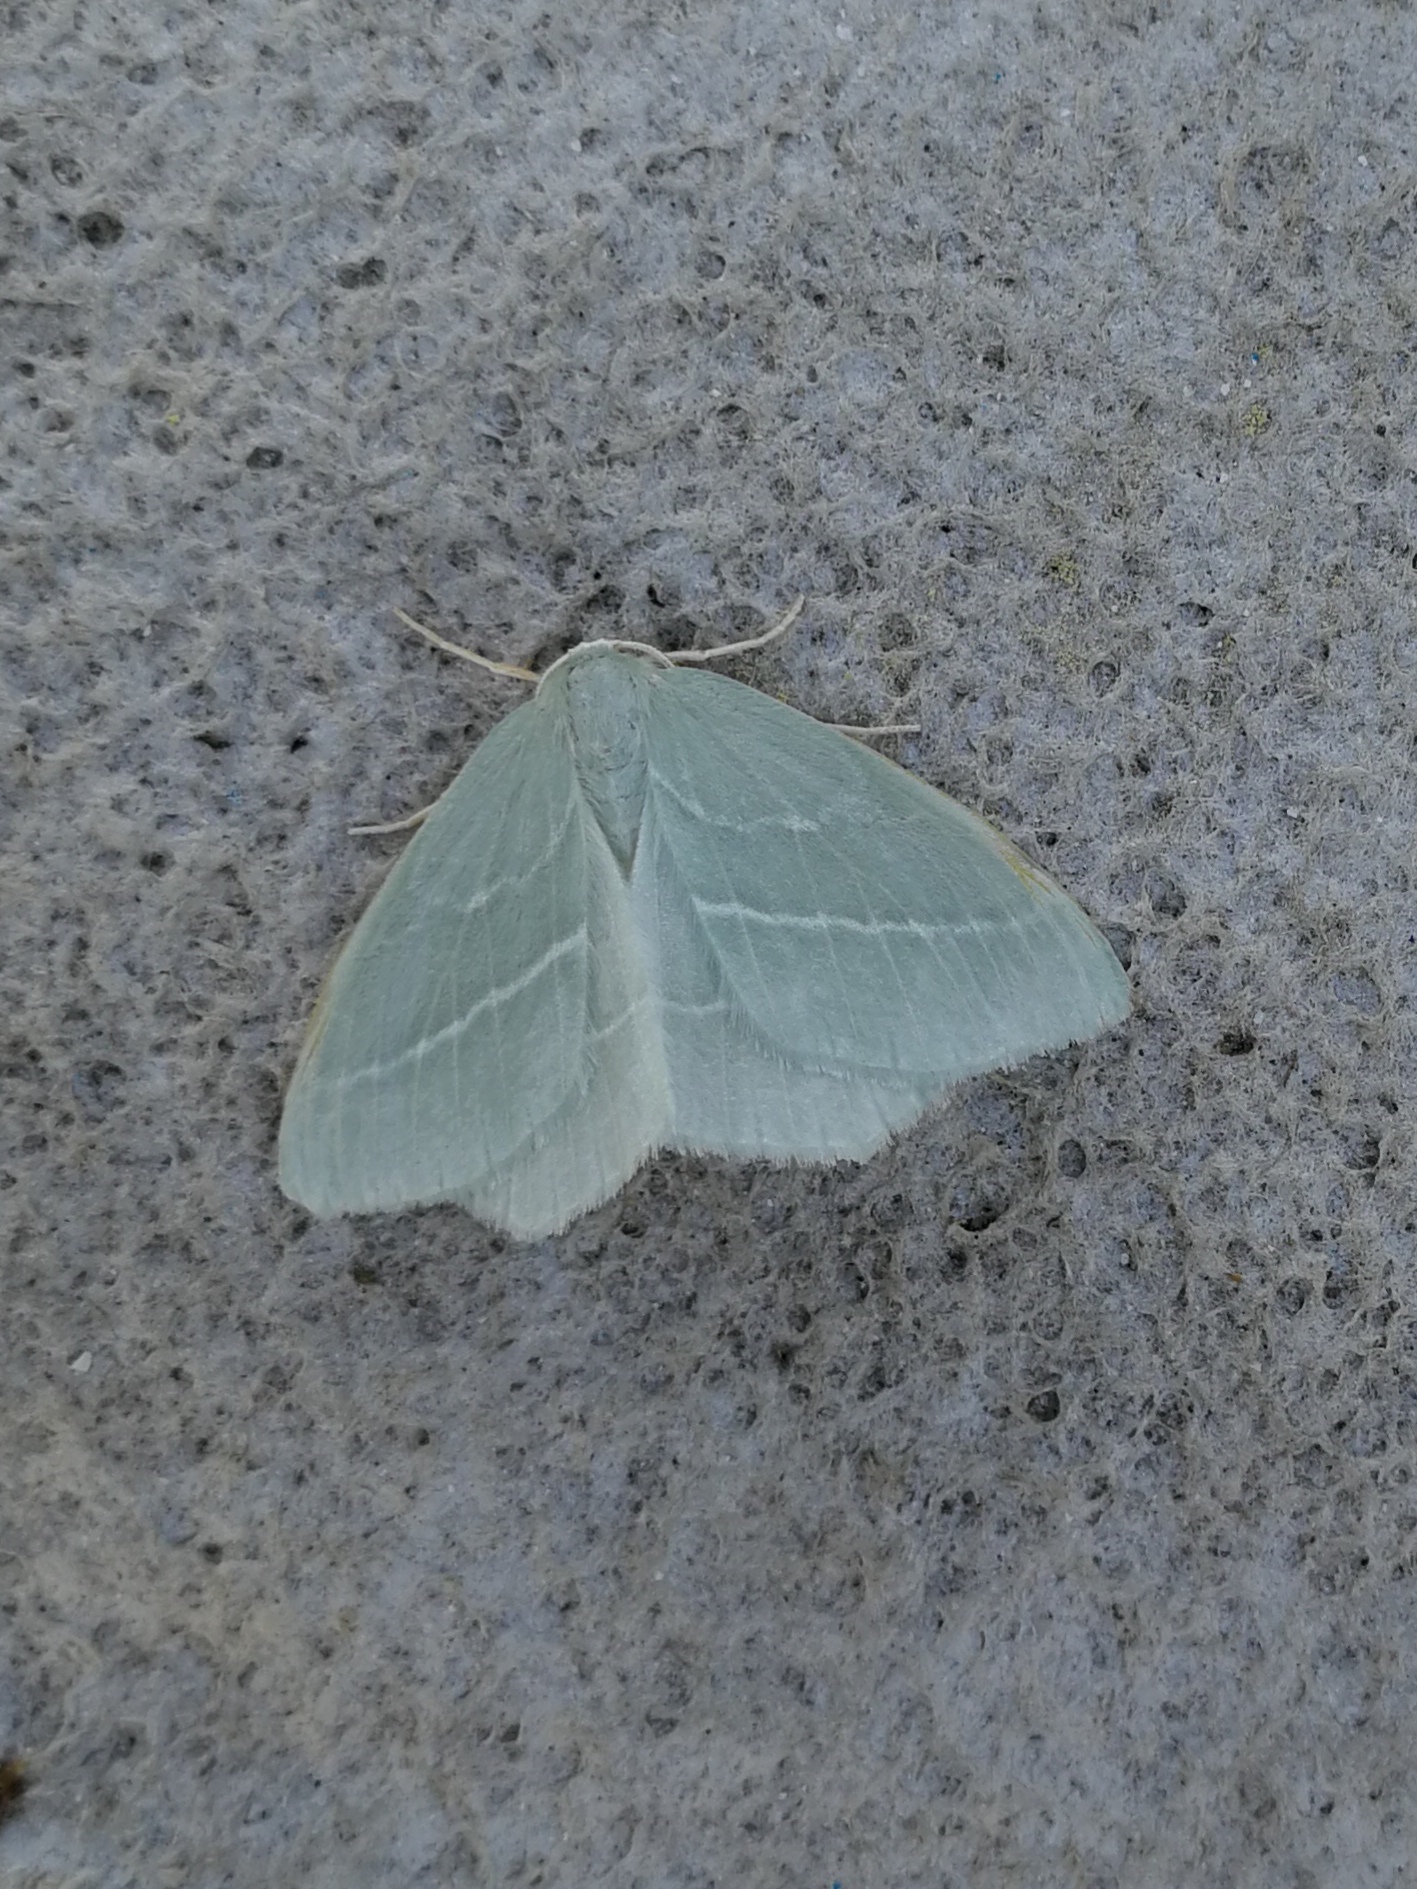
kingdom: Animalia
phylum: Arthropoda
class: Insecta
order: Lepidoptera
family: Geometridae
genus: Hemistola
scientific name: Hemistola chrysoprasaria
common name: Small emerald
